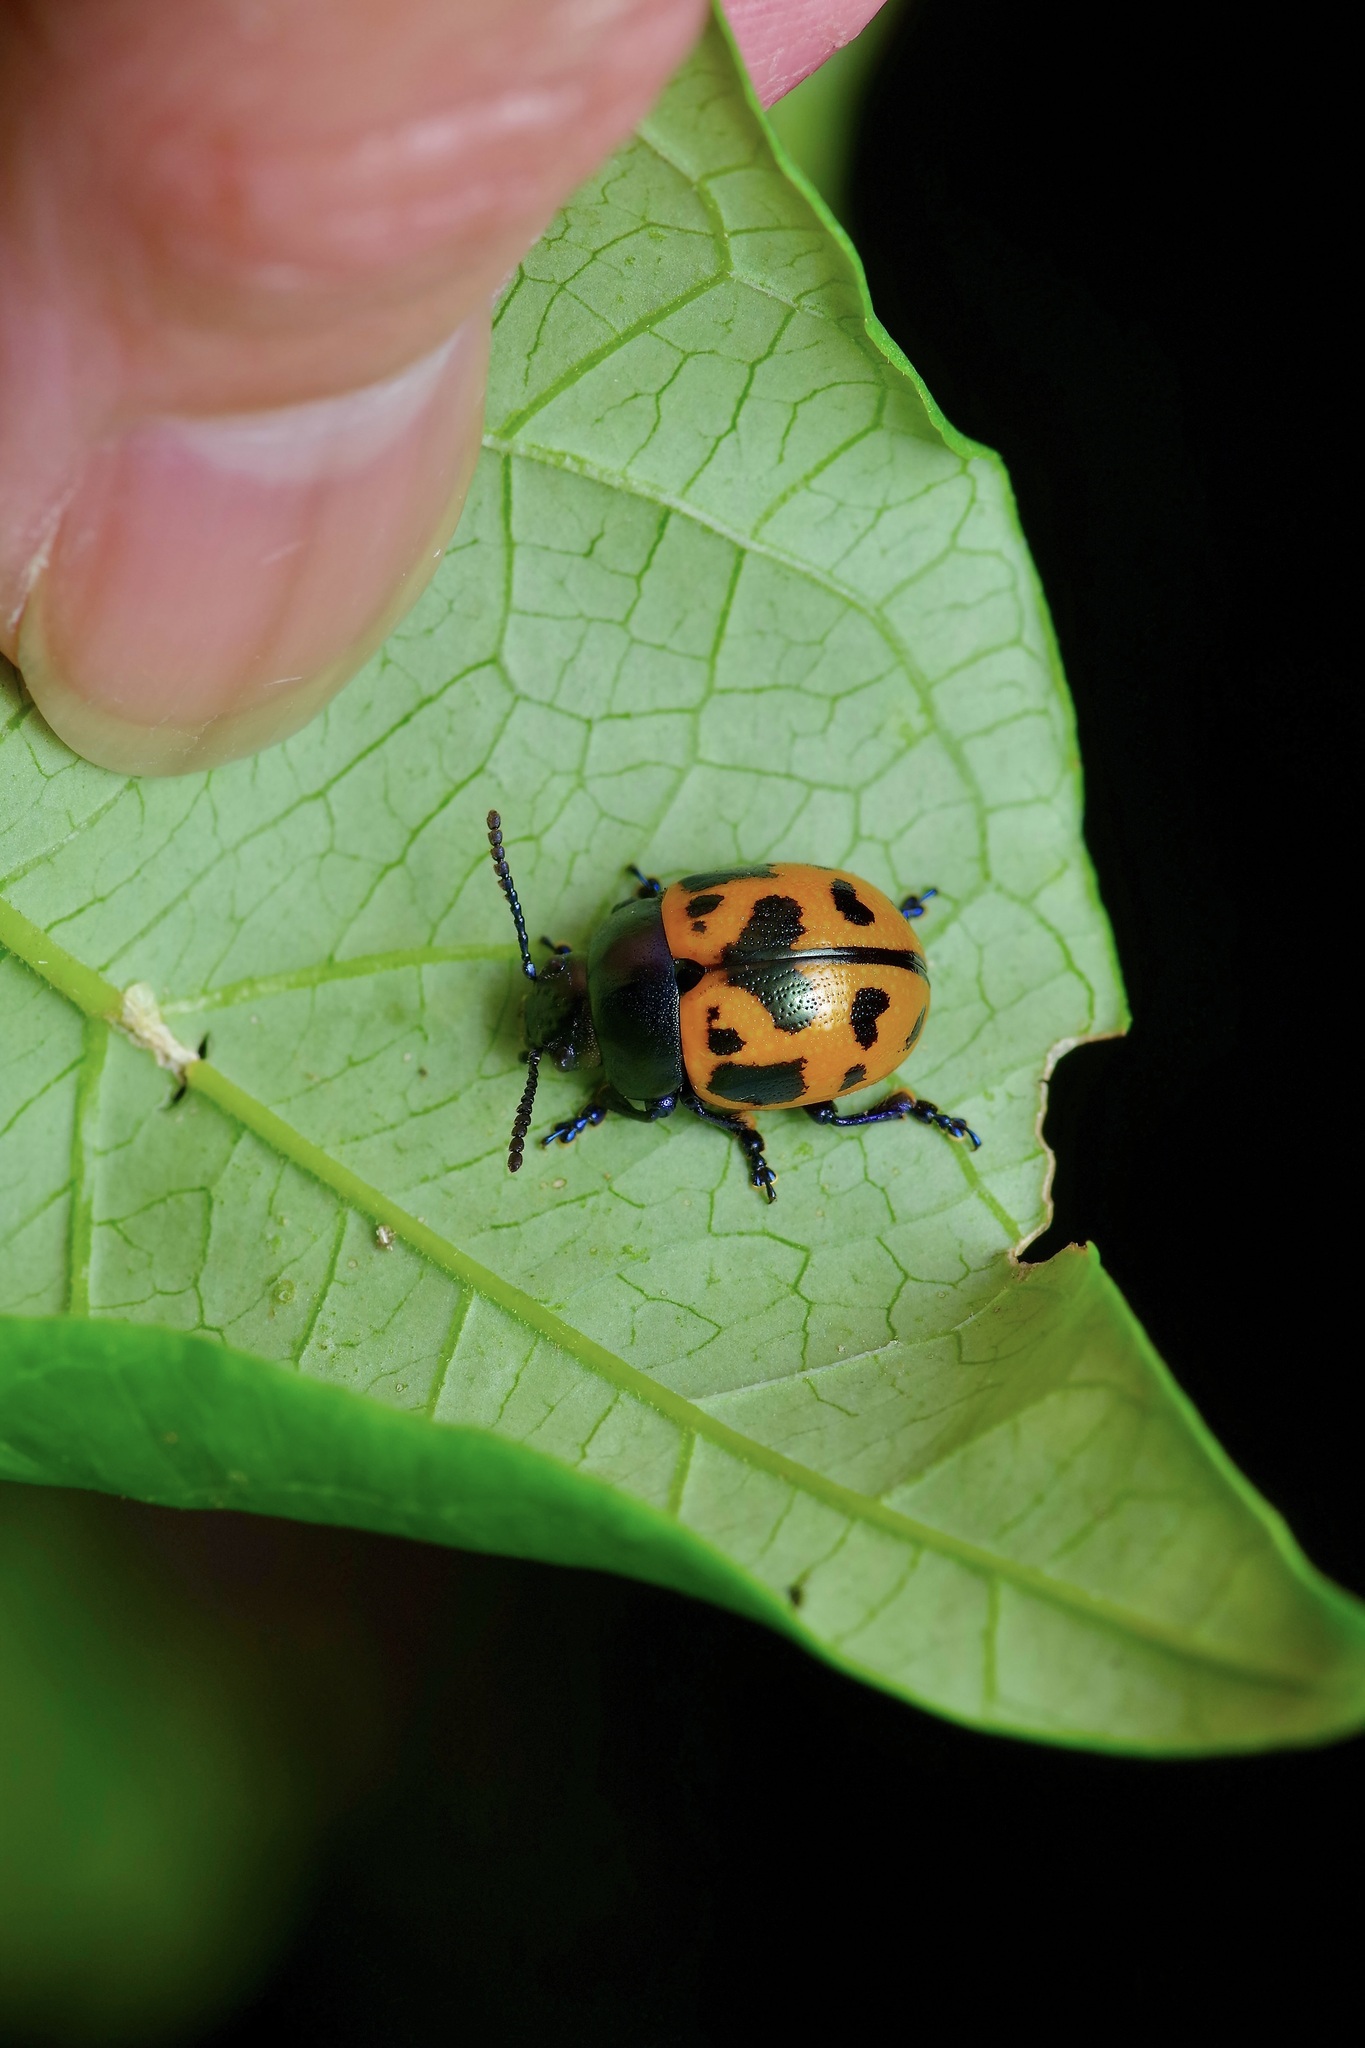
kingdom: Animalia
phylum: Arthropoda
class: Insecta
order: Coleoptera
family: Chrysomelidae
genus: Labidomera
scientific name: Labidomera clivicollis
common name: Swamp milkweed leaf beetle
